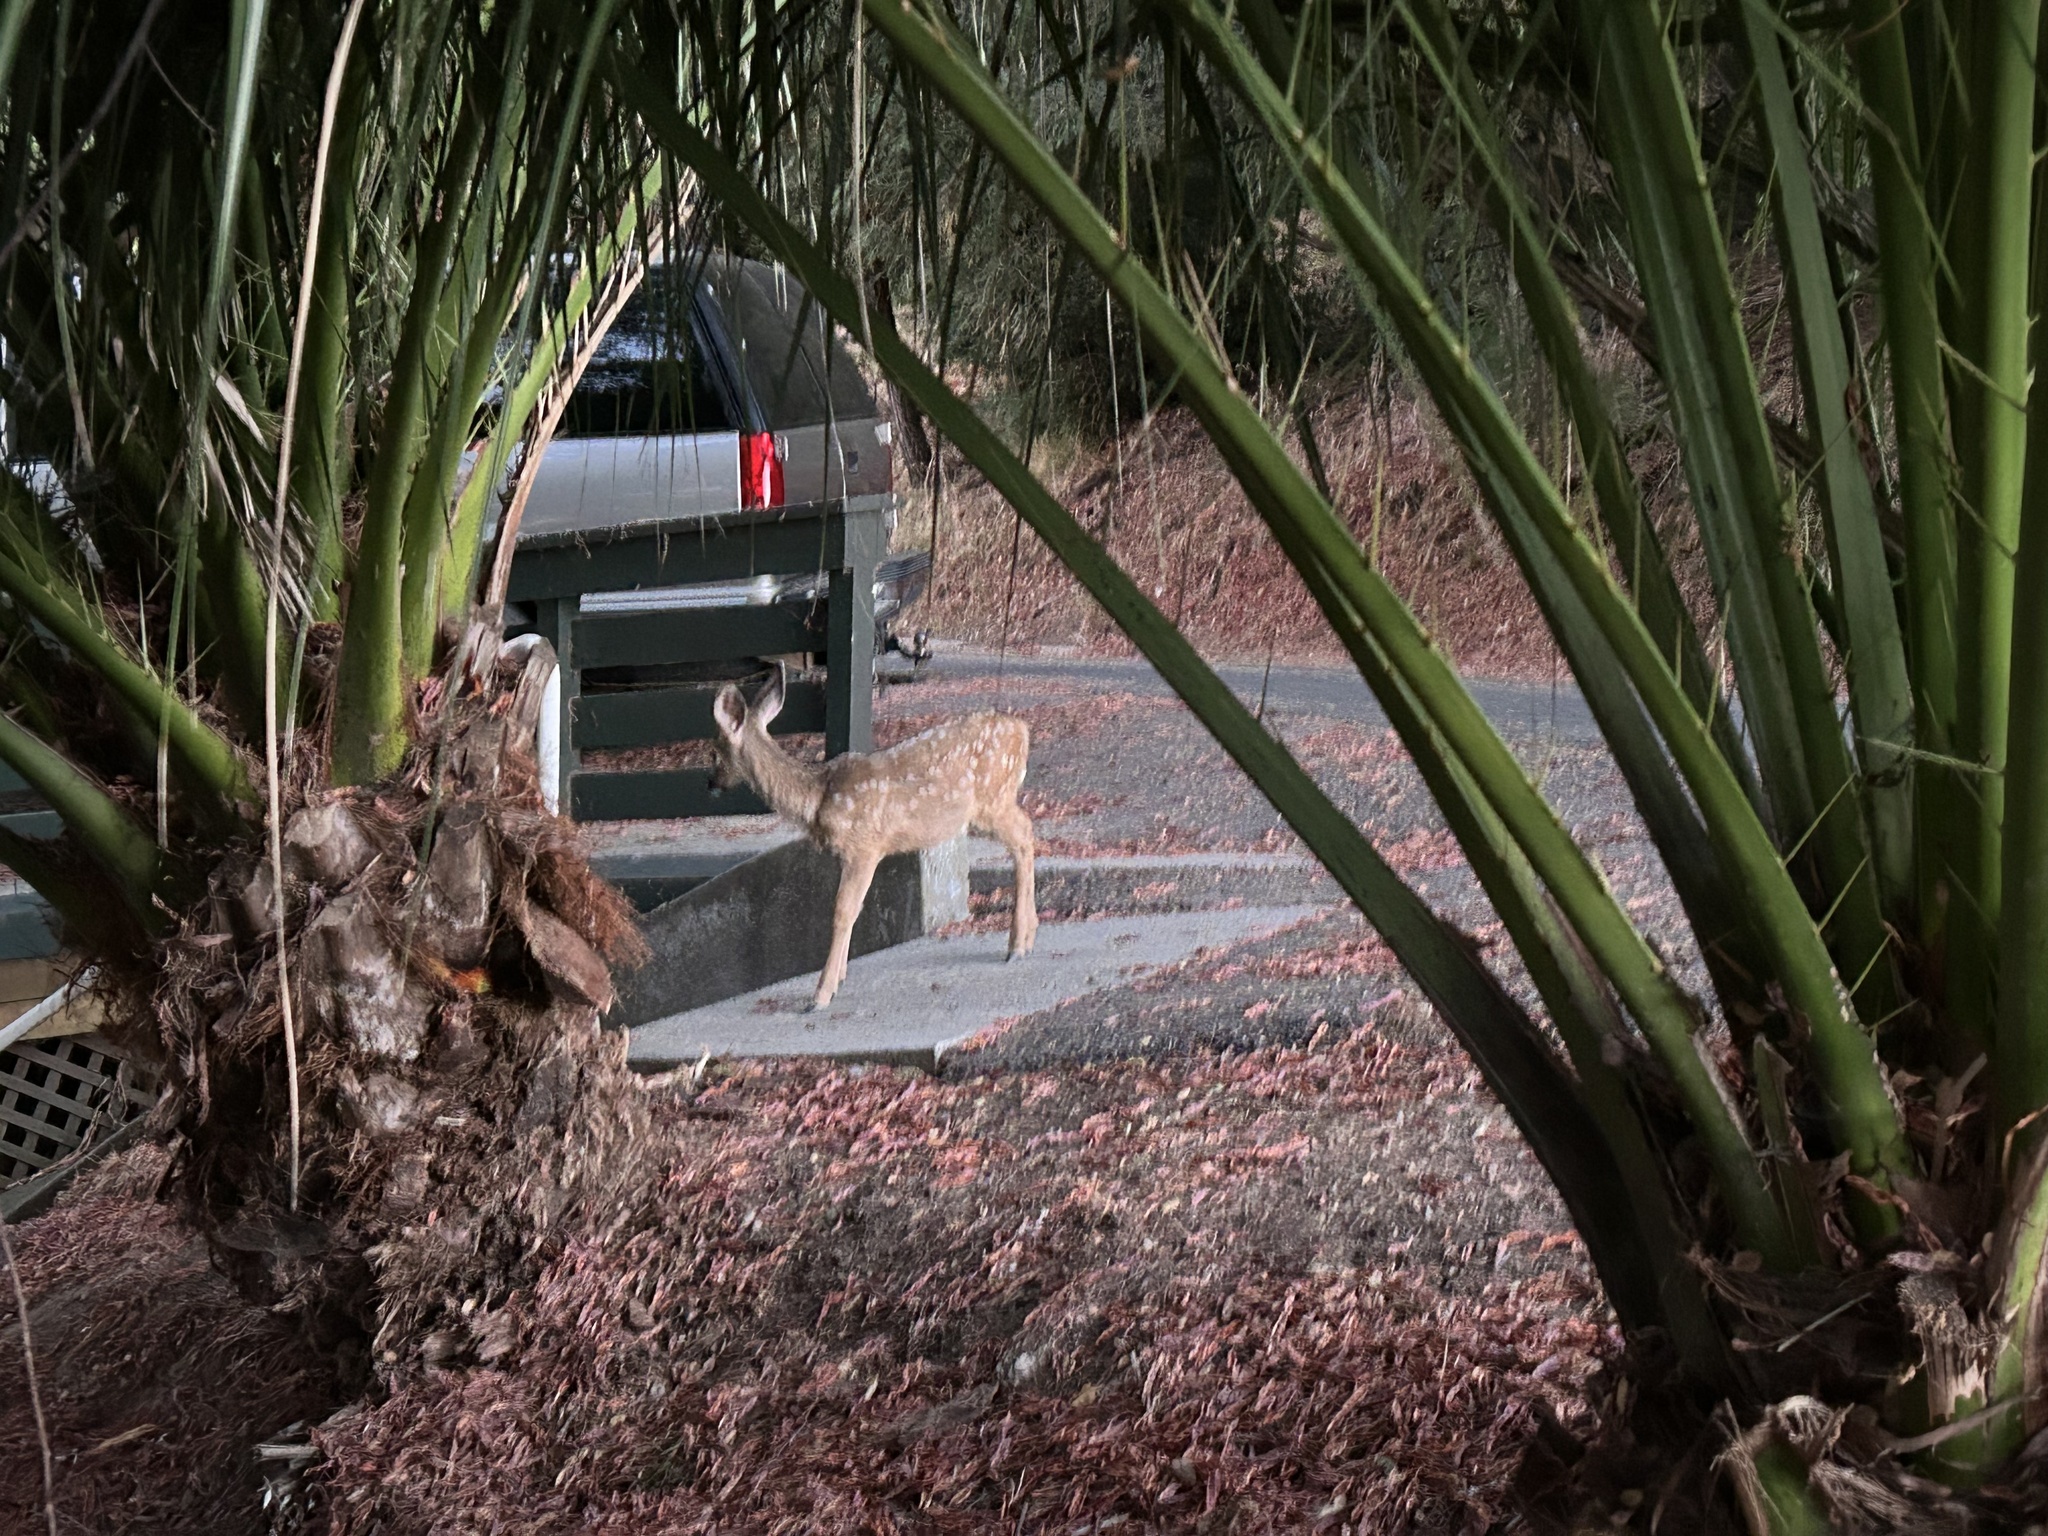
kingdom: Animalia
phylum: Chordata
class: Mammalia
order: Artiodactyla
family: Cervidae
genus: Odocoileus
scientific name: Odocoileus hemionus
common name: Mule deer
